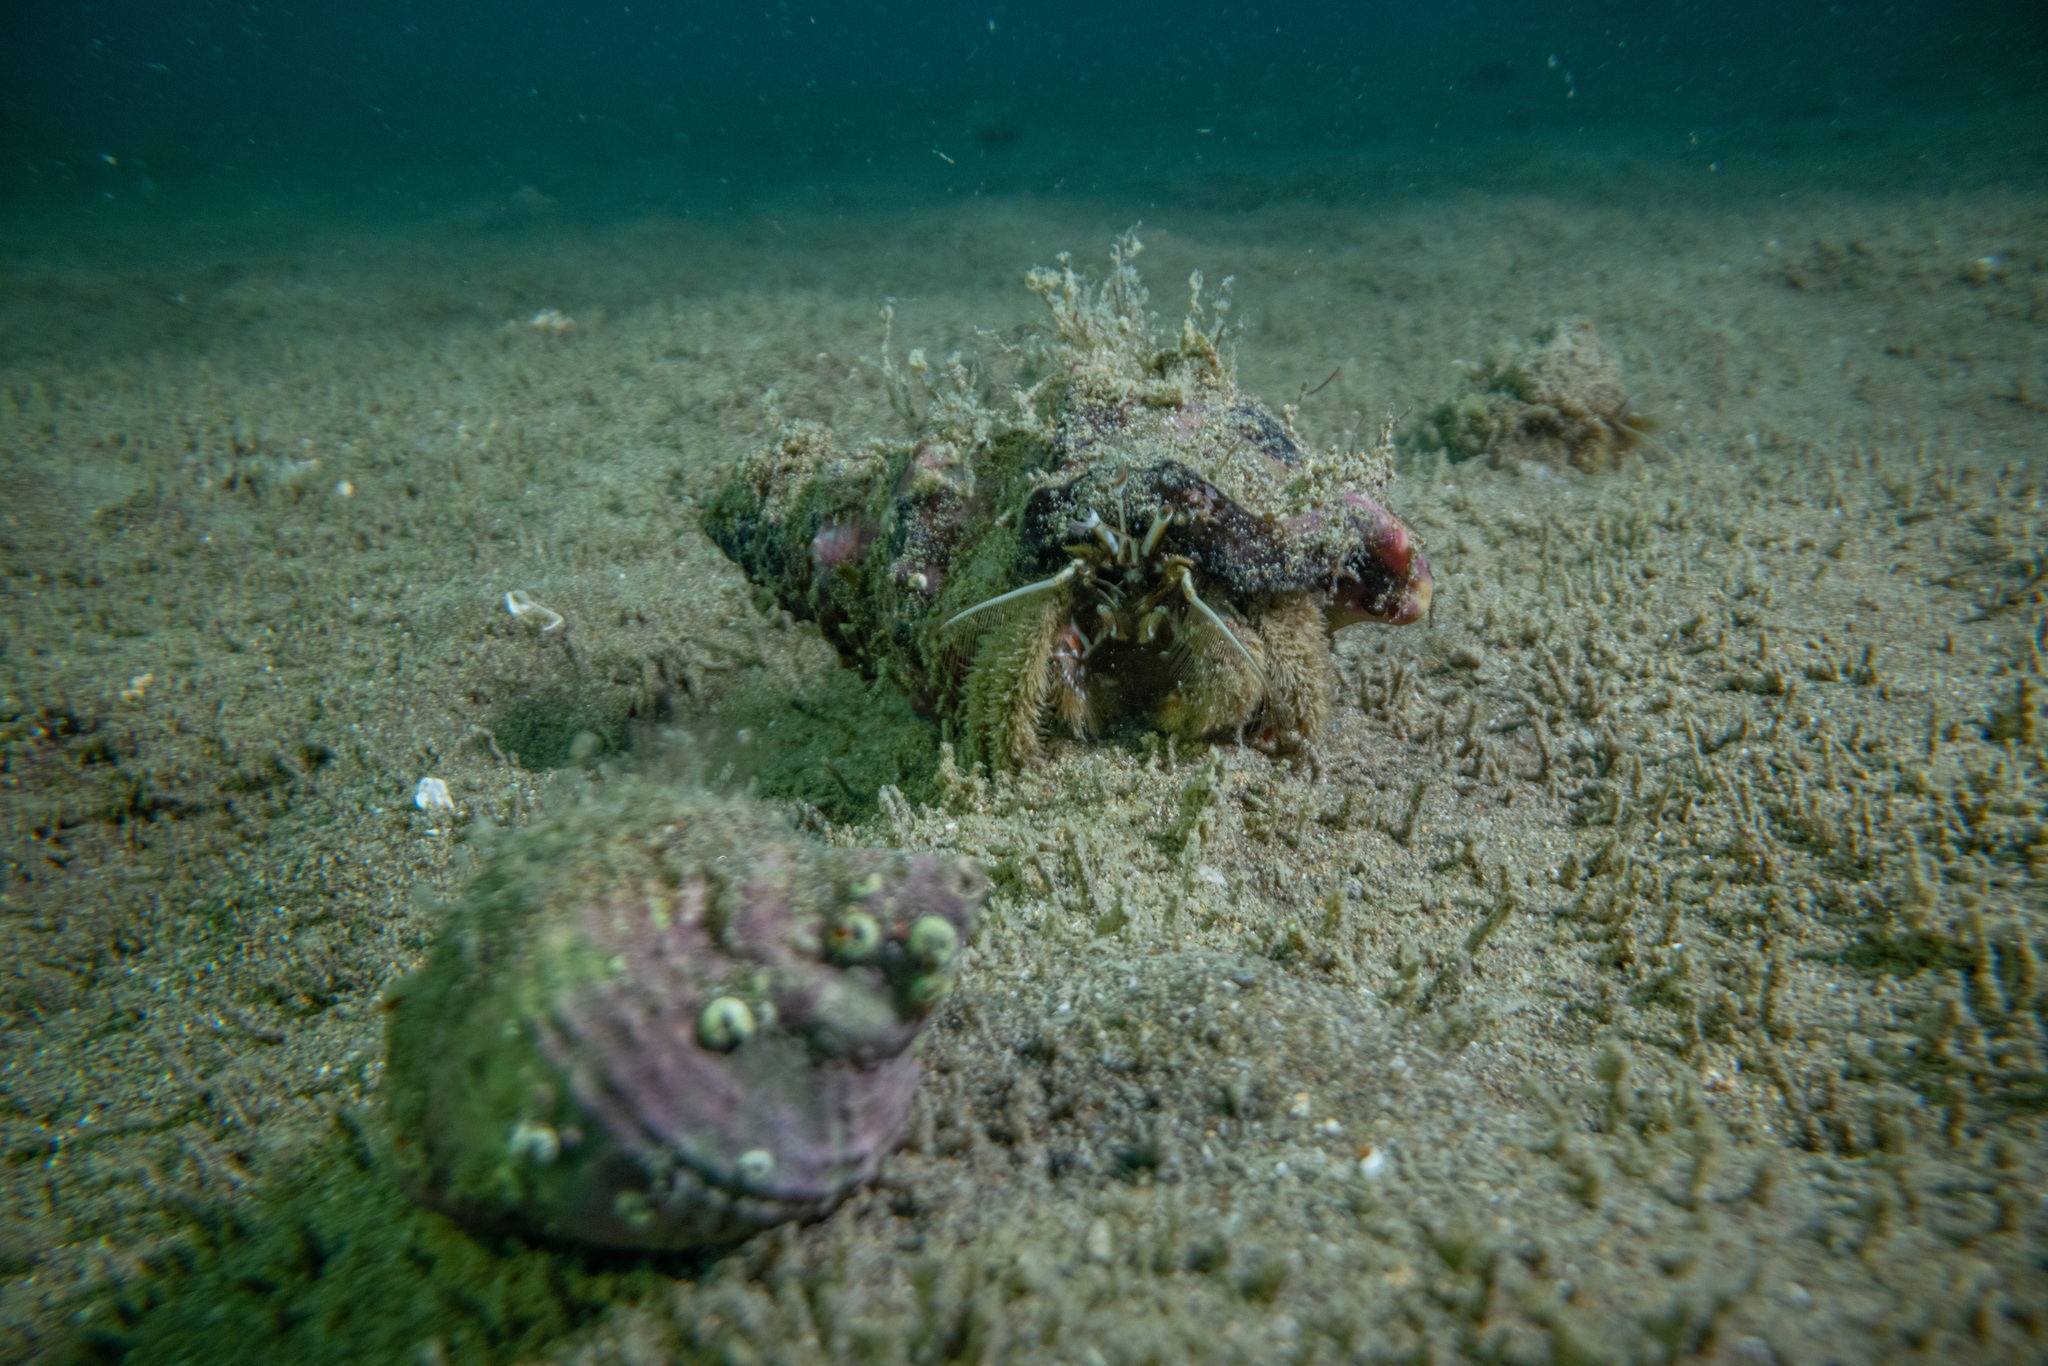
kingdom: Animalia
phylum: Arthropoda
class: Malacostraca
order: Decapoda
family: Diogenidae
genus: Areopaguristes
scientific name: Areopaguristes setosus
